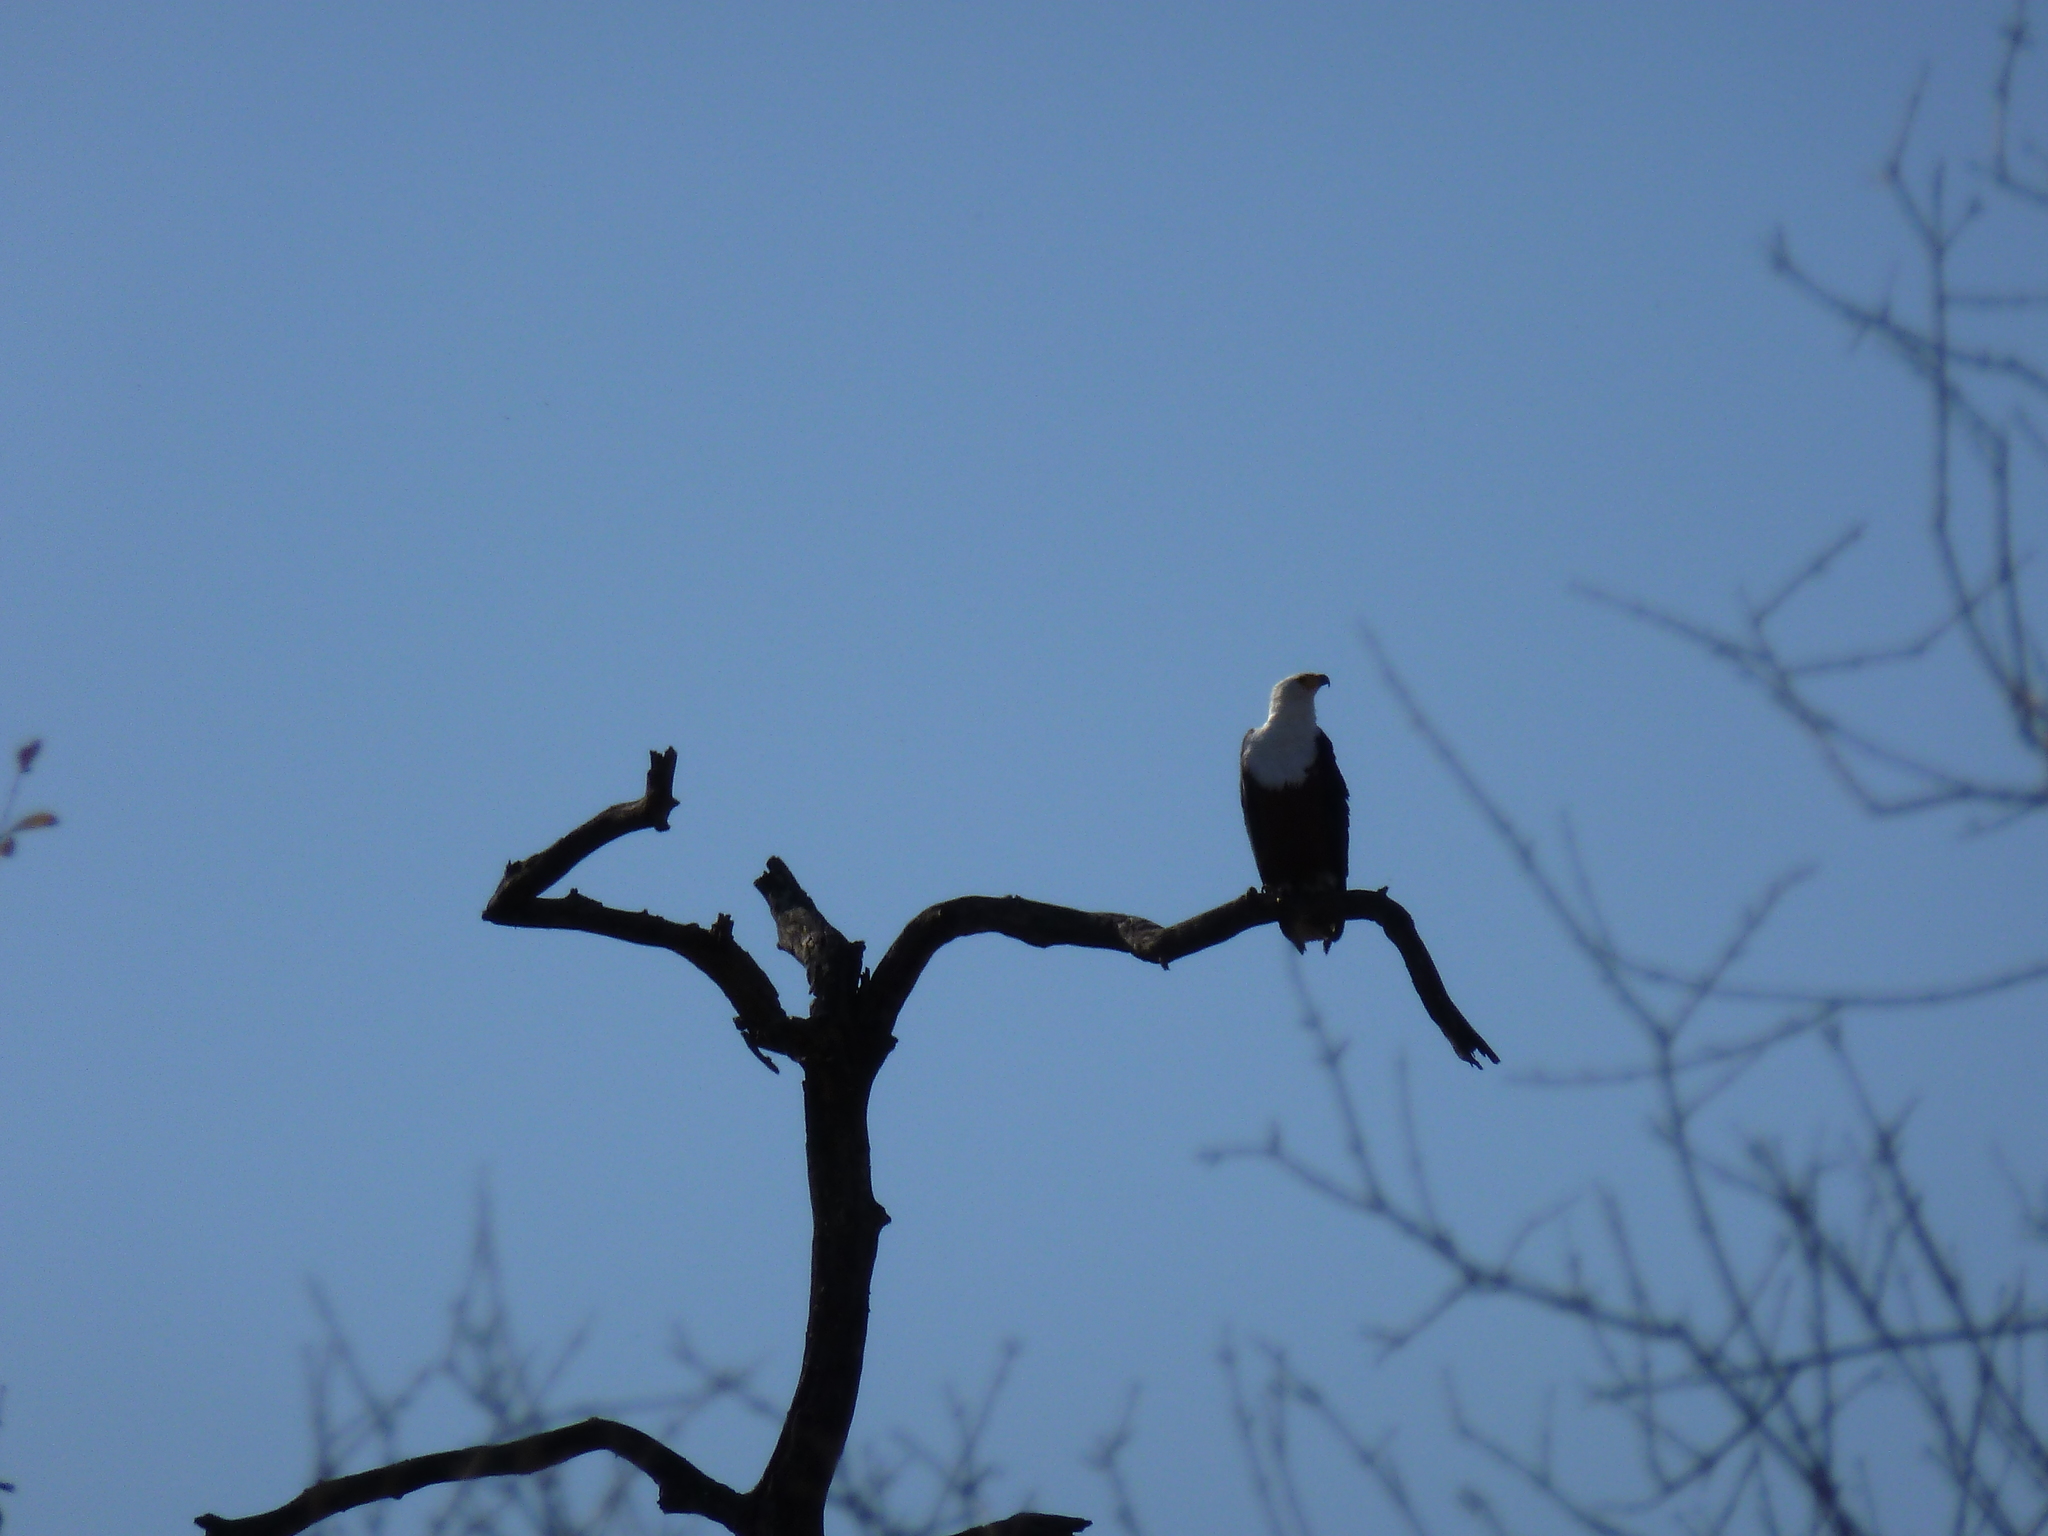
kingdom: Animalia
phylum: Chordata
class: Aves
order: Accipitriformes
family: Accipitridae
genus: Haliaeetus
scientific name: Haliaeetus vocifer
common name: African fish eagle
